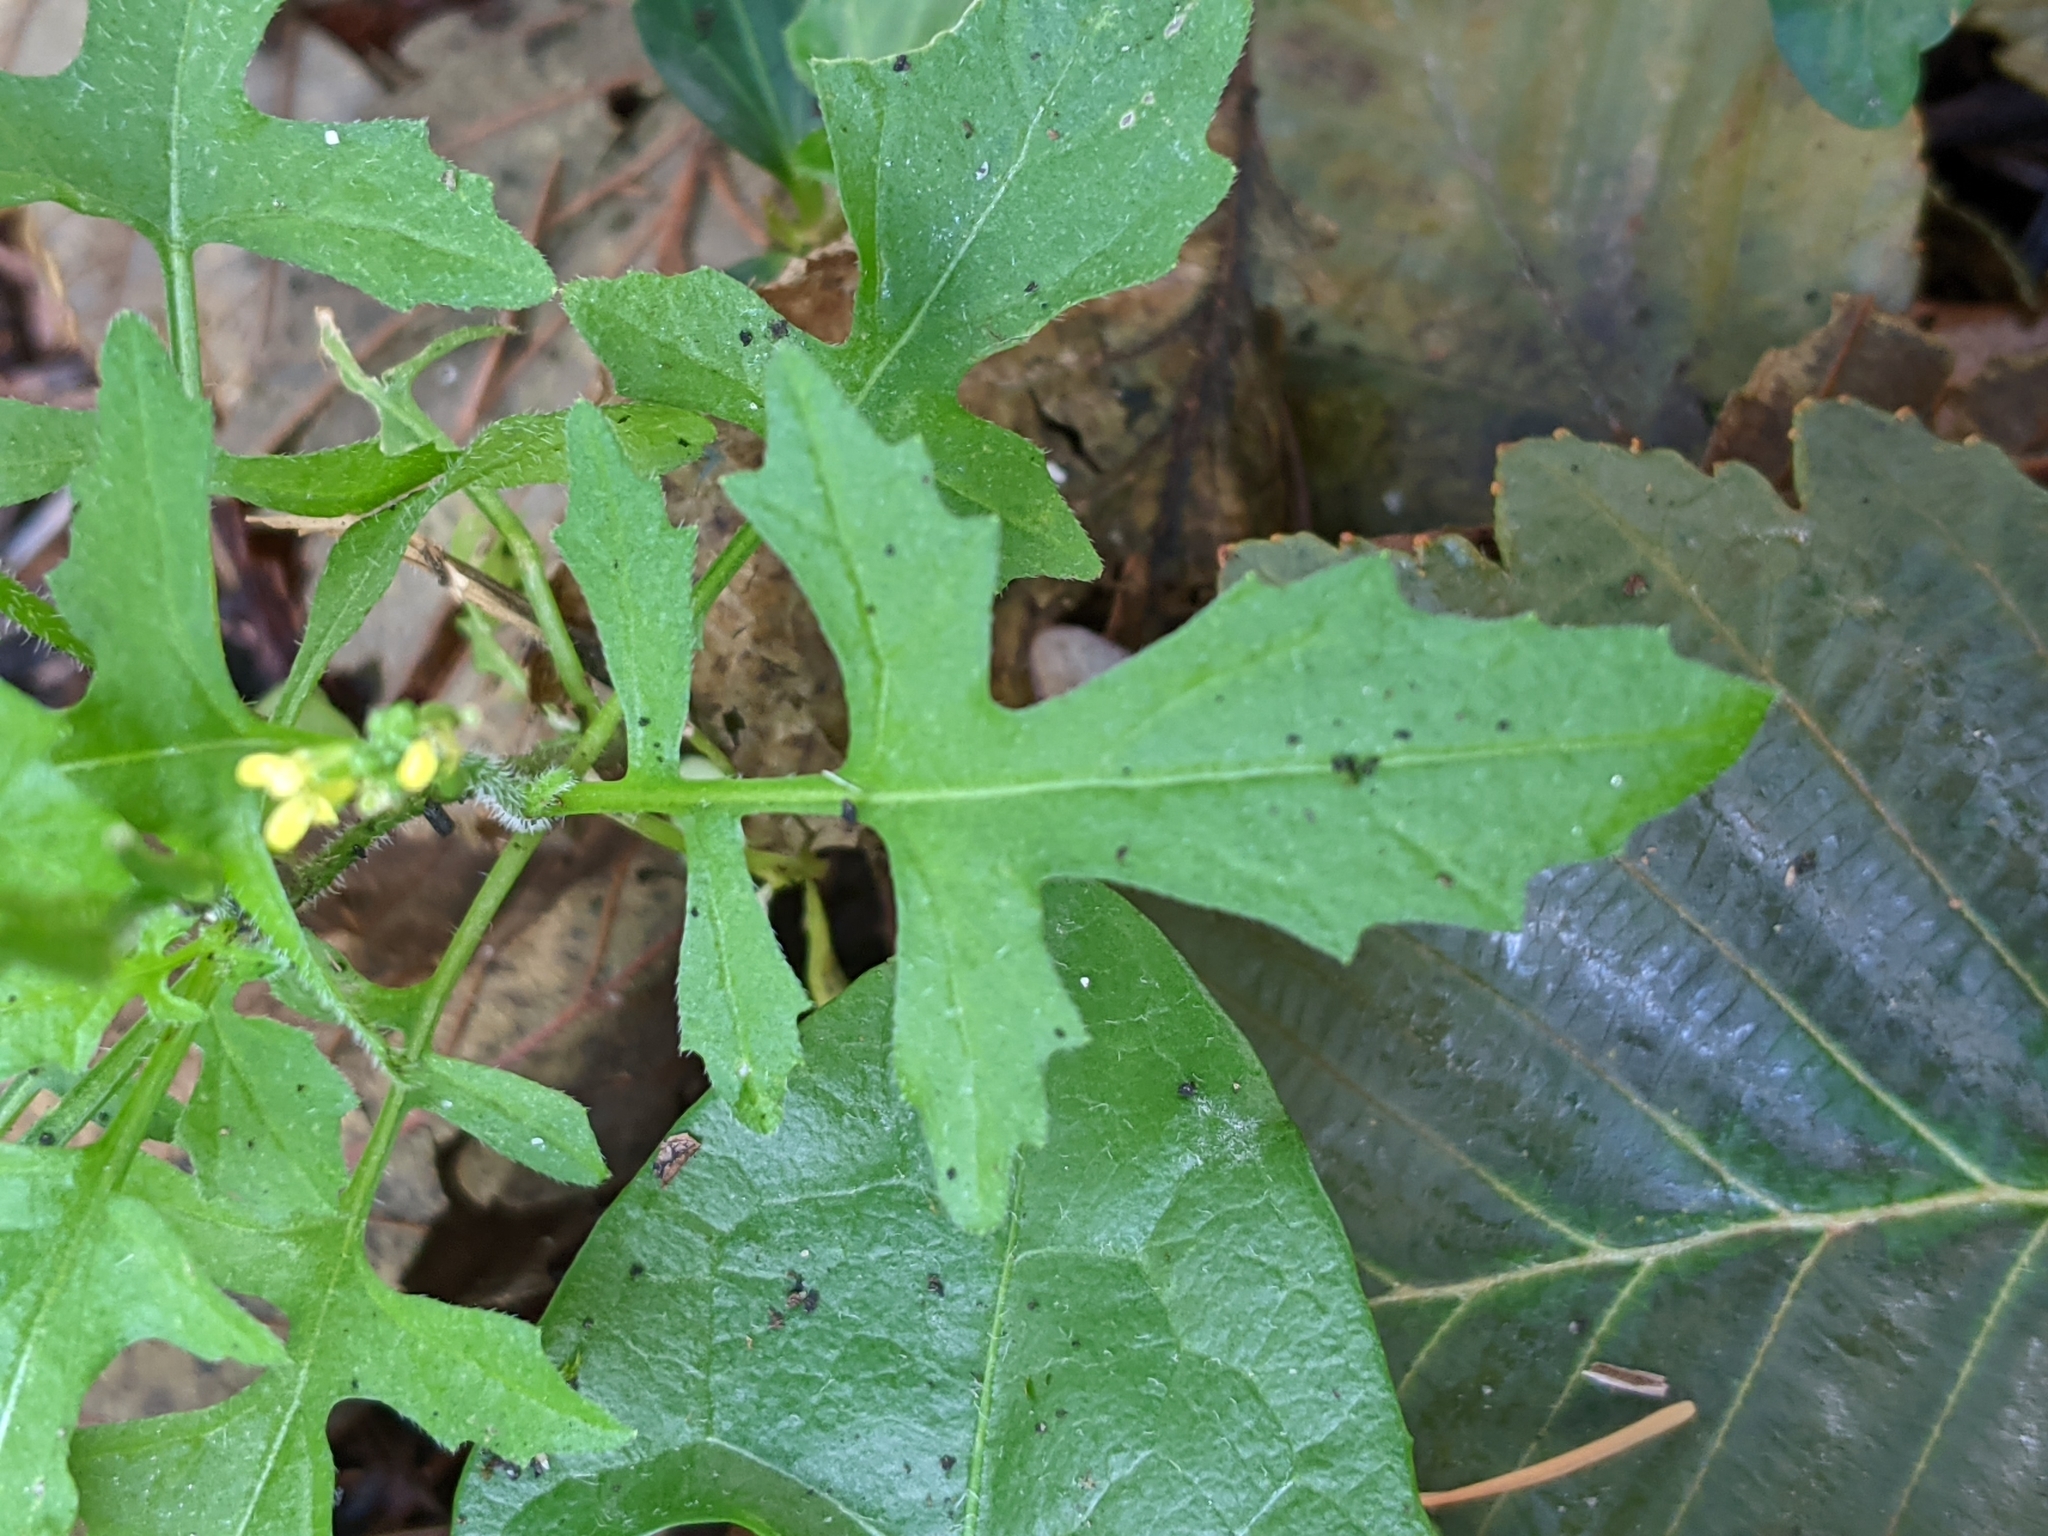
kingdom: Plantae
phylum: Tracheophyta
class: Magnoliopsida
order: Brassicales
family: Brassicaceae
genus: Sisymbrium
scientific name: Sisymbrium officinale
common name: Hedge mustard
